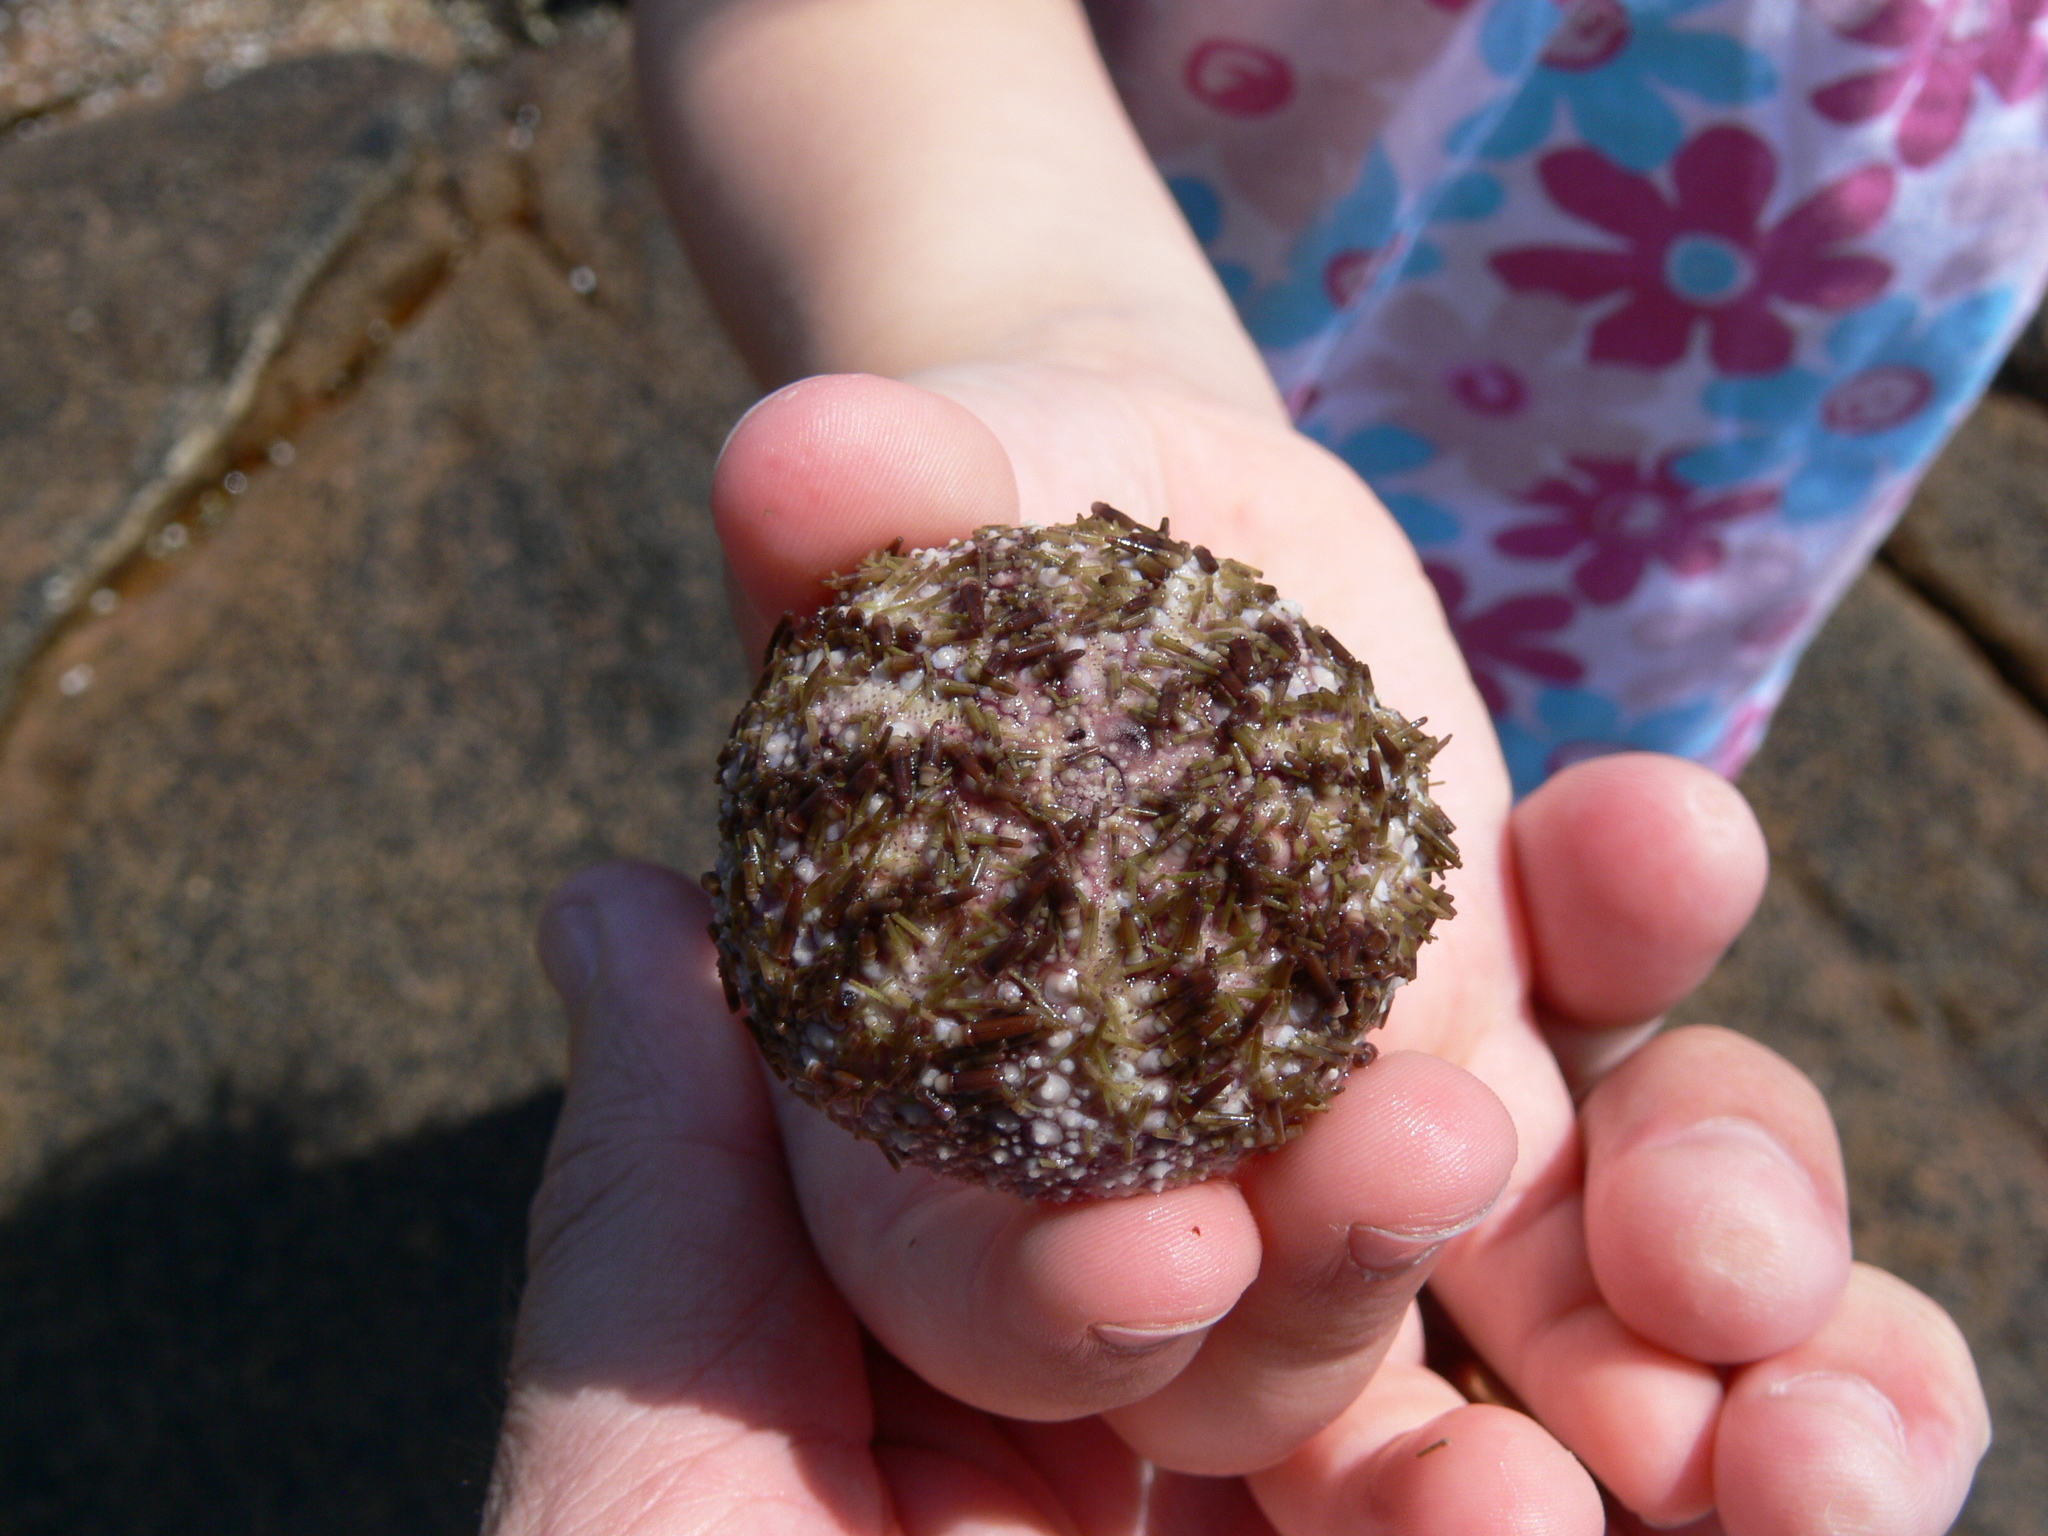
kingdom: Animalia
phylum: Echinodermata
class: Echinoidea
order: Camarodonta
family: Strongylocentrotidae
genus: Strongylocentrotus
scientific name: Strongylocentrotus droebachiensis
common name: Northern sea urchin
